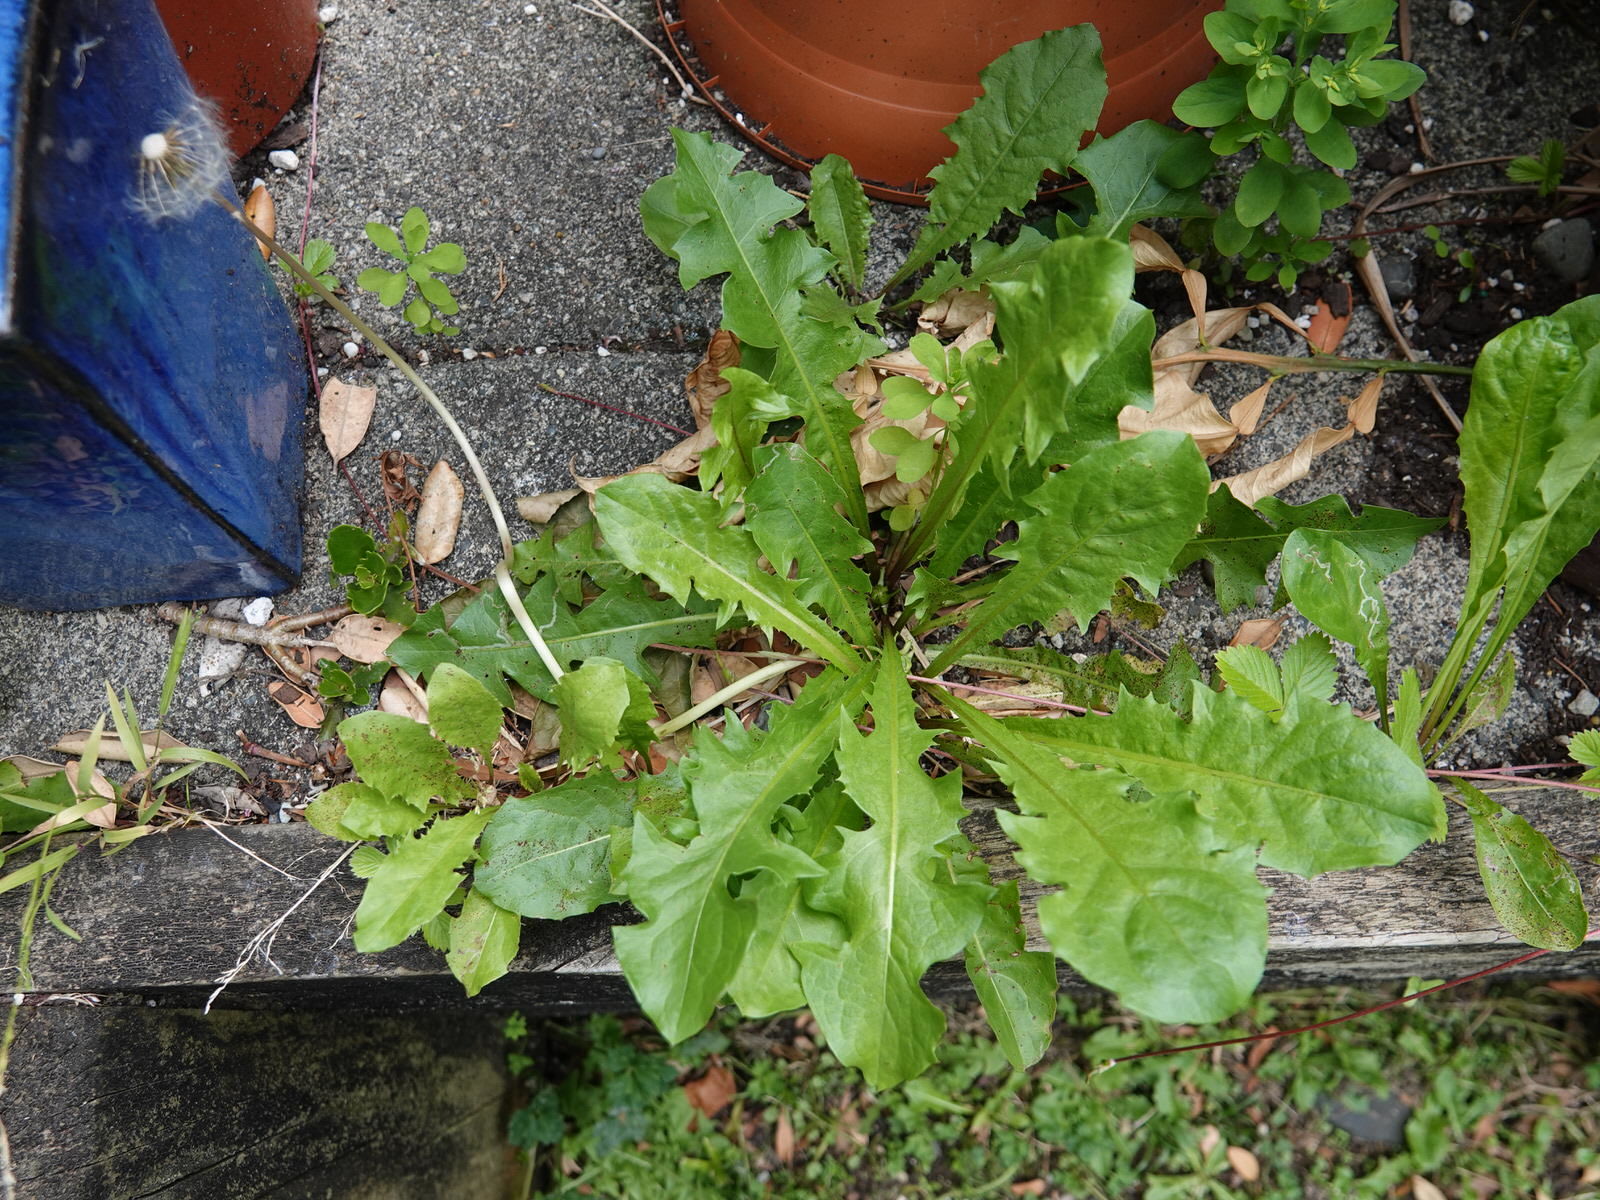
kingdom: Plantae
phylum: Tracheophyta
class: Magnoliopsida
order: Asterales
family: Asteraceae
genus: Taraxacum
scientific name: Taraxacum officinale
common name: Common dandelion
